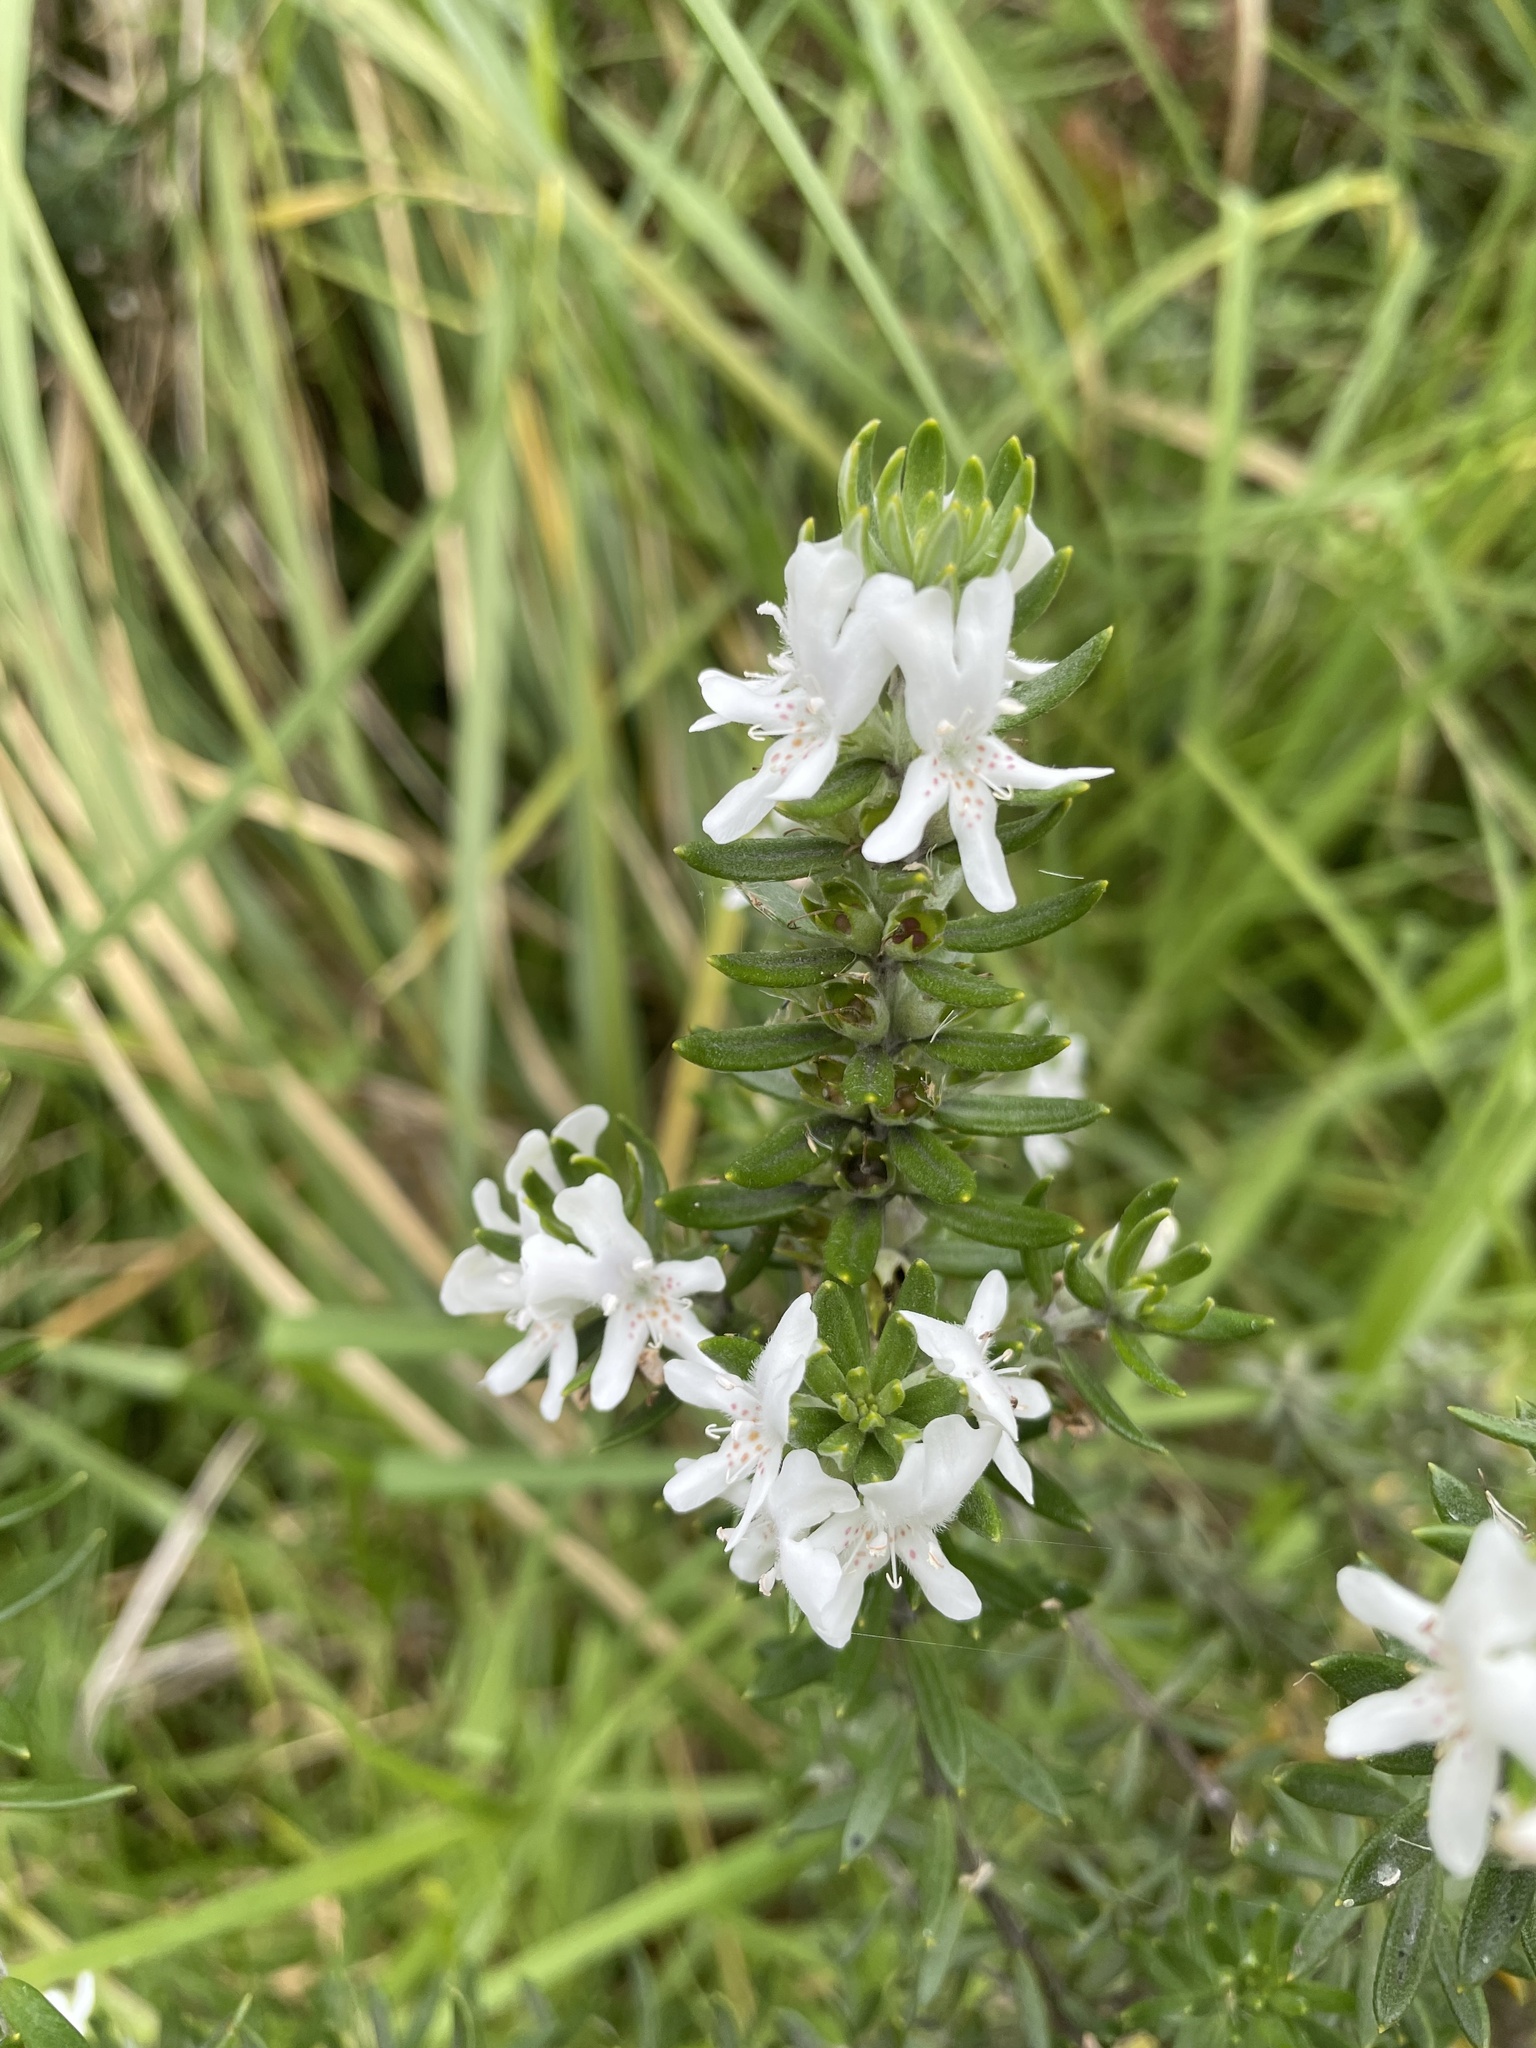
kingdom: Plantae
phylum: Tracheophyta
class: Magnoliopsida
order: Lamiales
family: Lamiaceae
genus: Westringia
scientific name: Westringia fruticosa
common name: Coastal-rosemary
